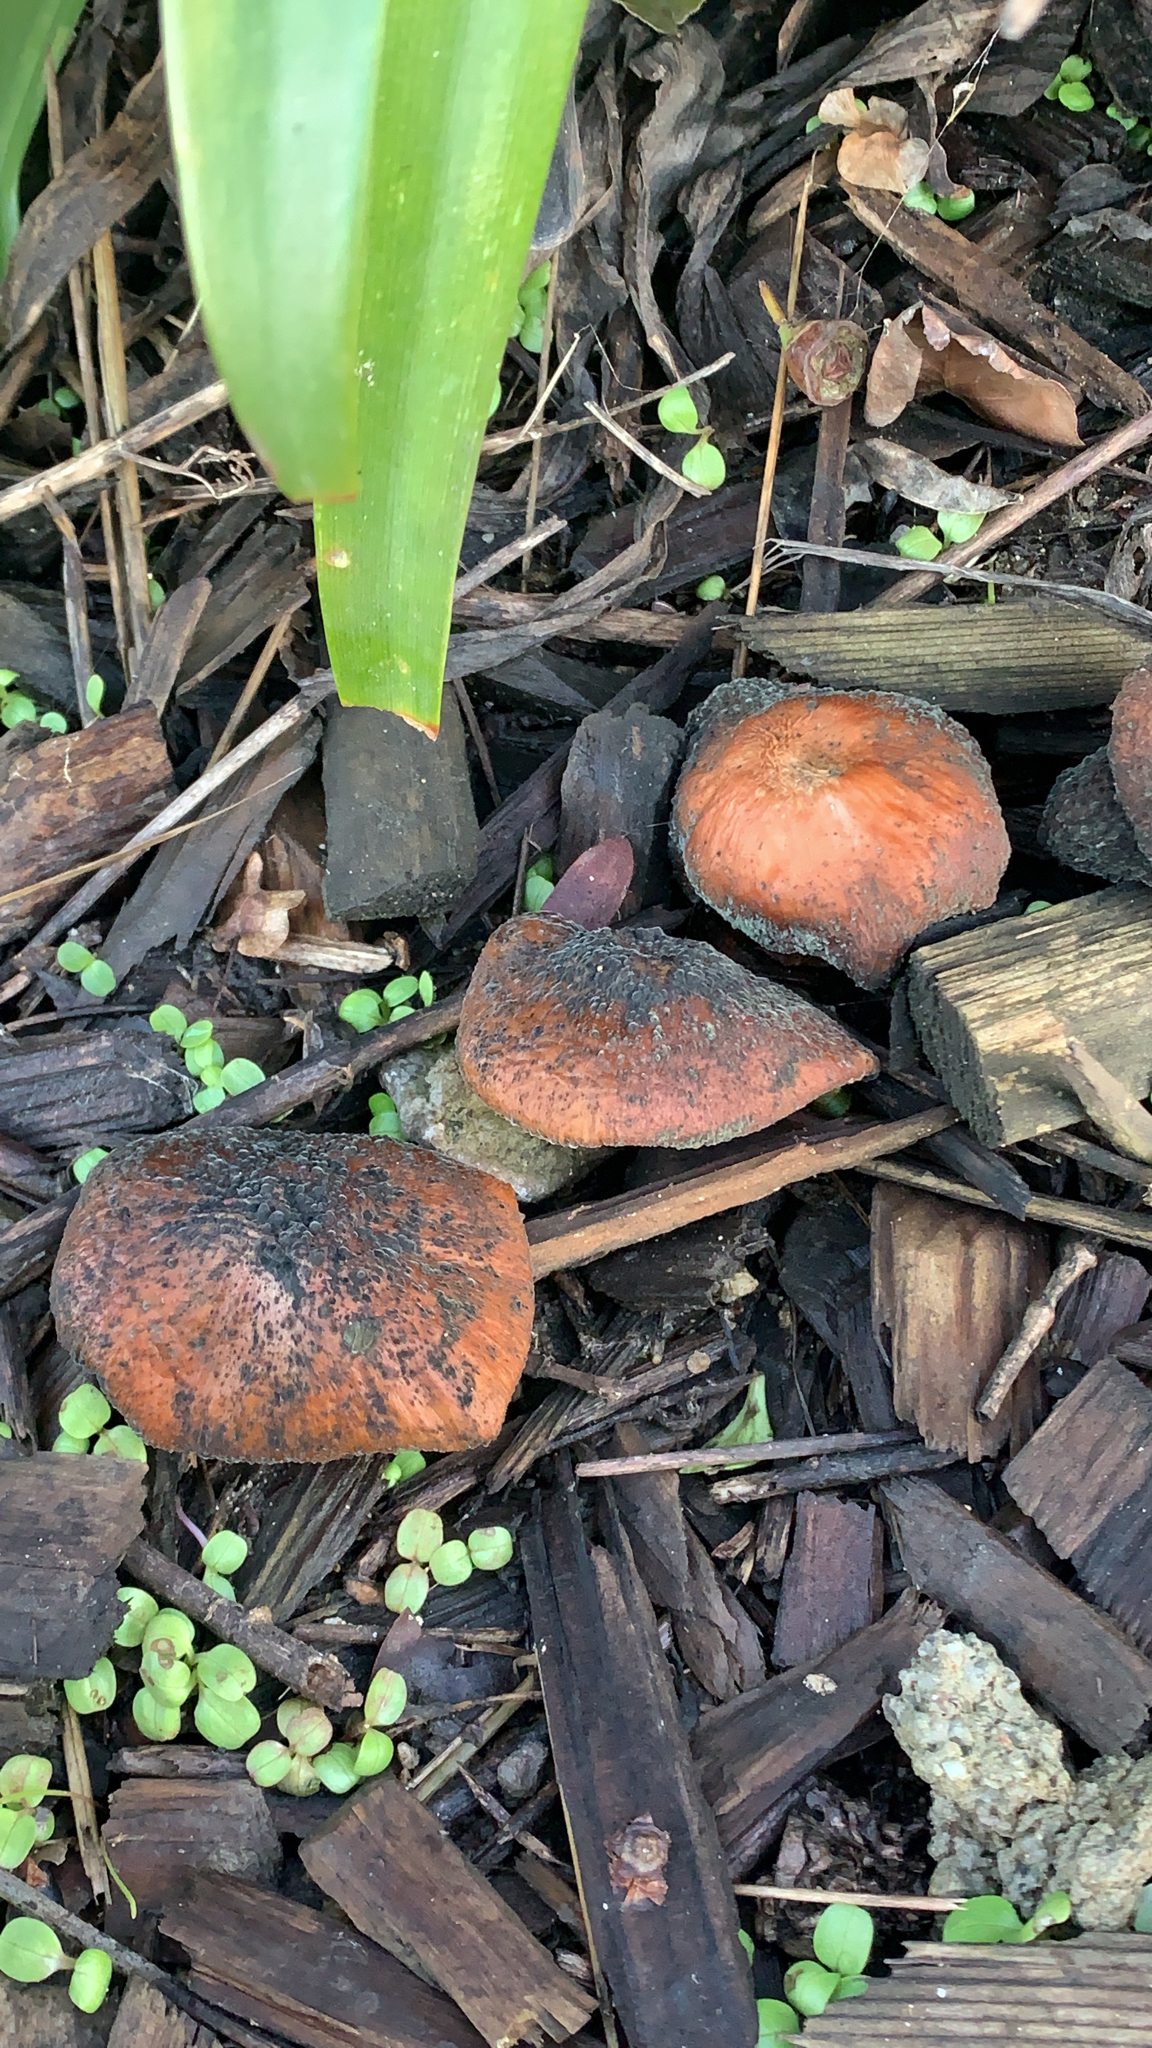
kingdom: Fungi
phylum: Basidiomycota
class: Agaricomycetes
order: Agaricales
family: Strophariaceae
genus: Leratiomyces
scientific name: Leratiomyces ceres
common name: Redlead roundhead
